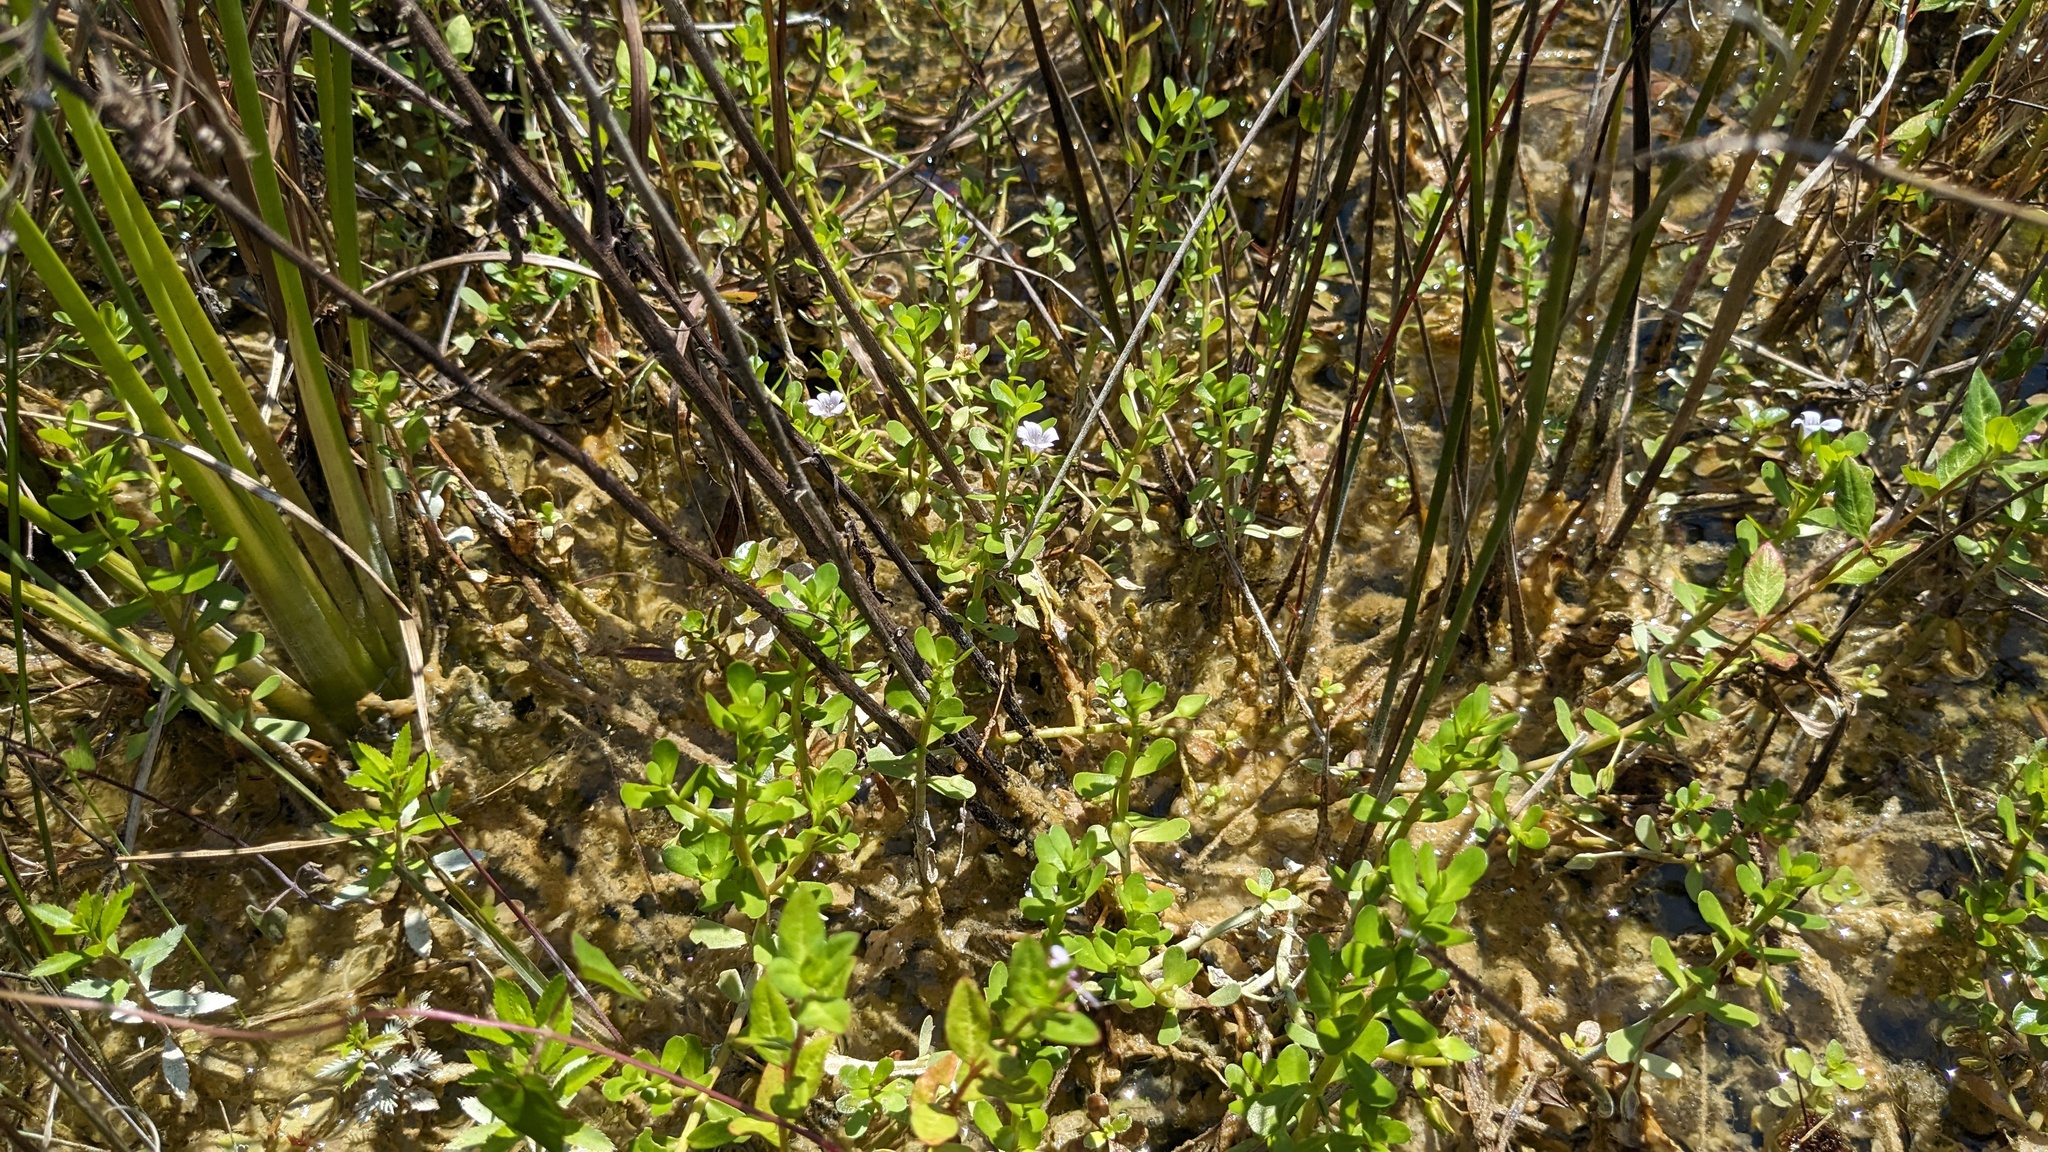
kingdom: Plantae
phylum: Tracheophyta
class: Magnoliopsida
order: Lamiales
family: Plantaginaceae
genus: Bacopa
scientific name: Bacopa monnieri
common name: Indian-pennywort
